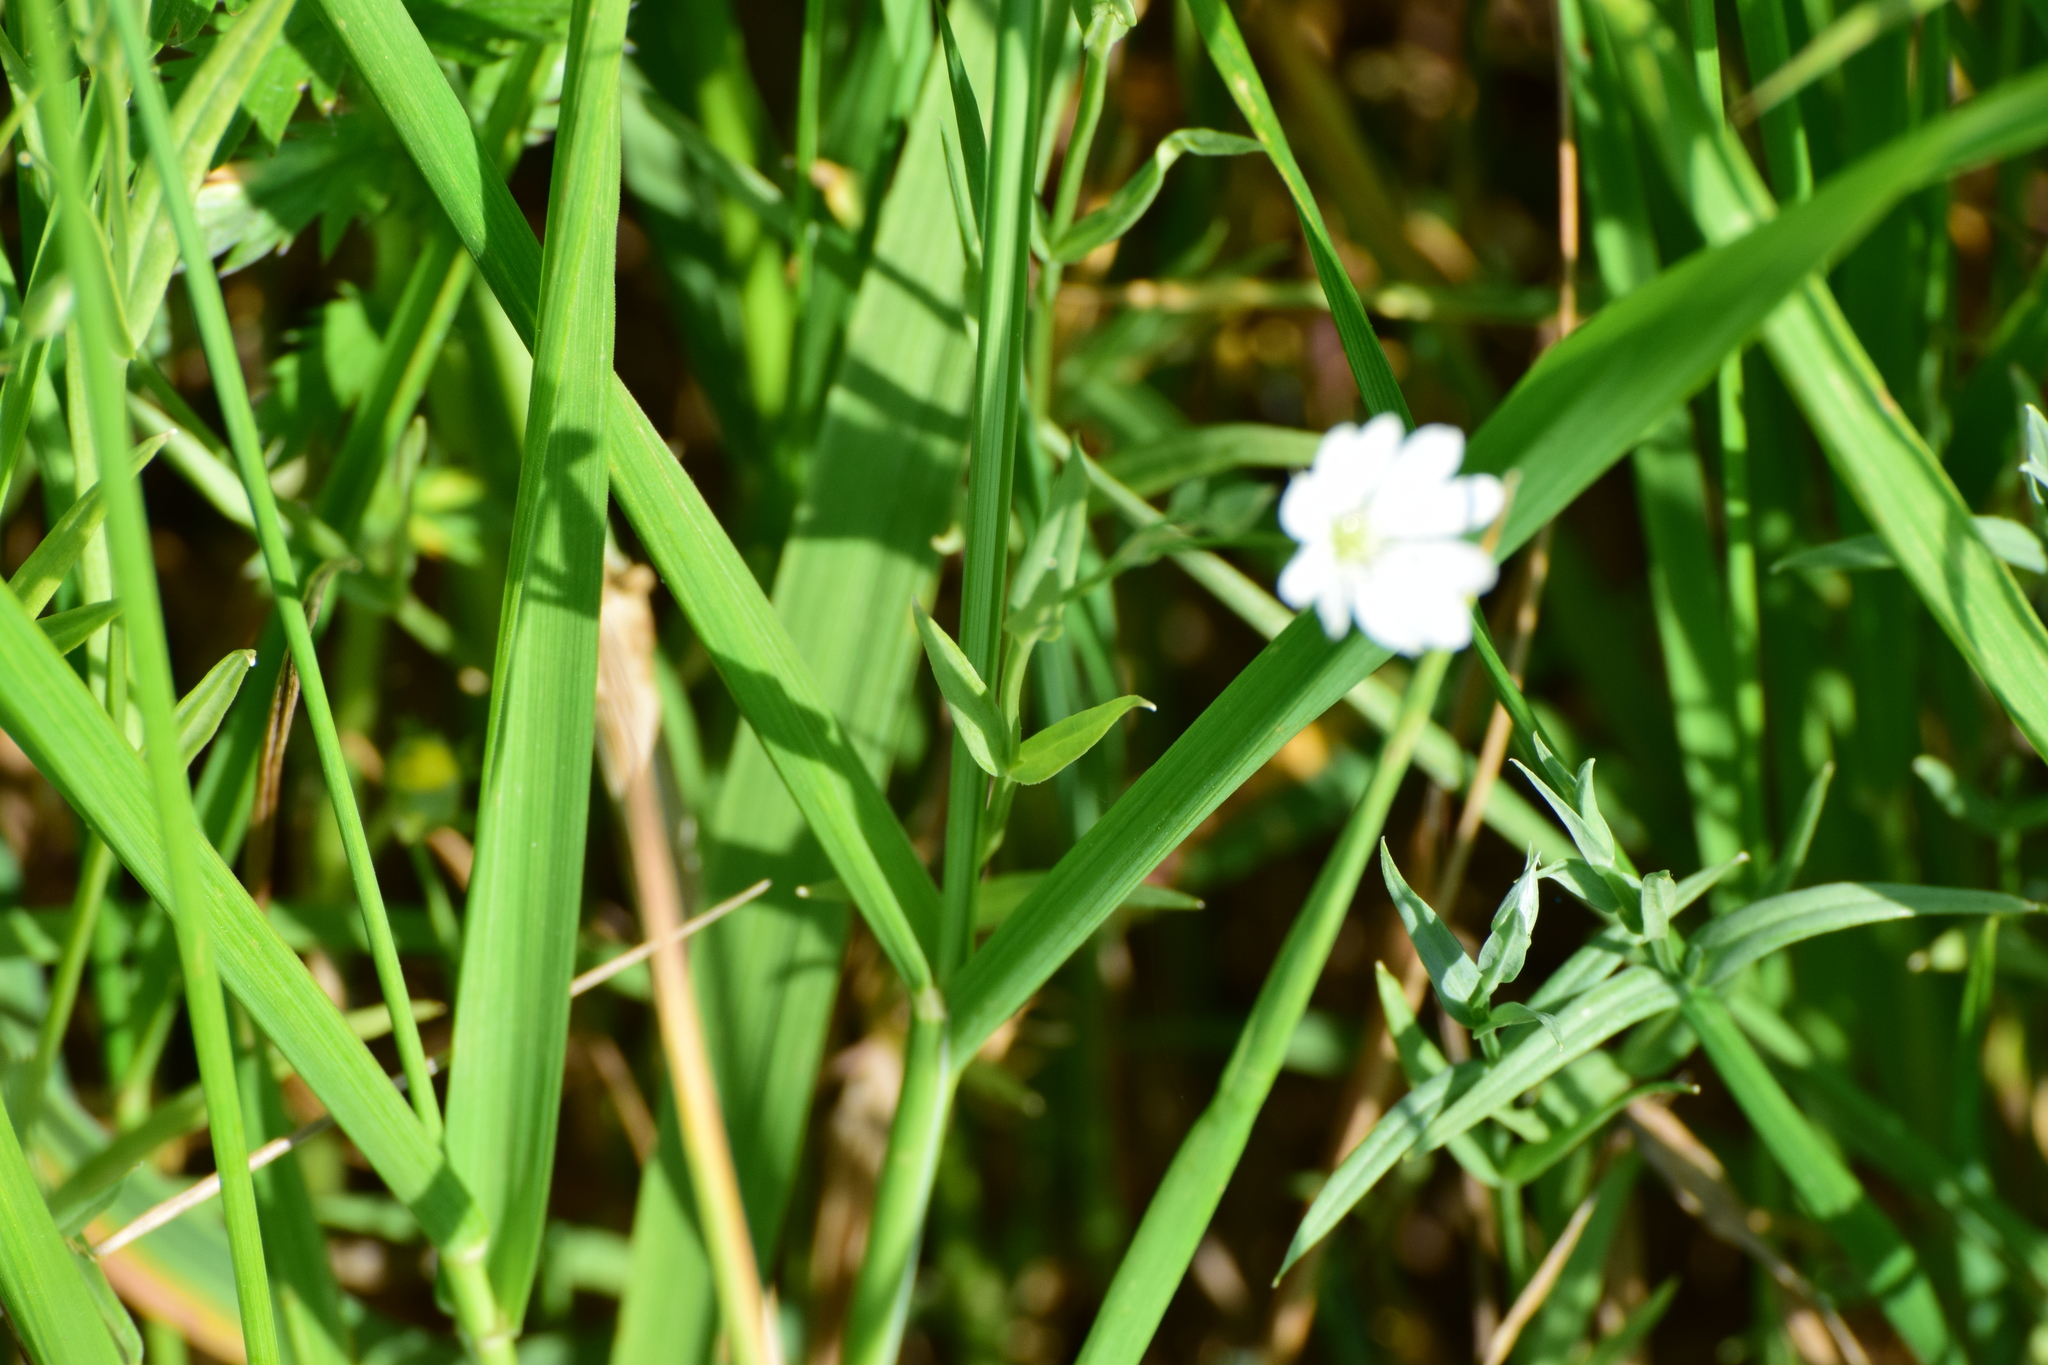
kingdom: Plantae
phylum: Tracheophyta
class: Magnoliopsida
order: Caryophyllales
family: Caryophyllaceae
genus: Stellaria
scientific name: Stellaria graminea
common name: Grass-like starwort
